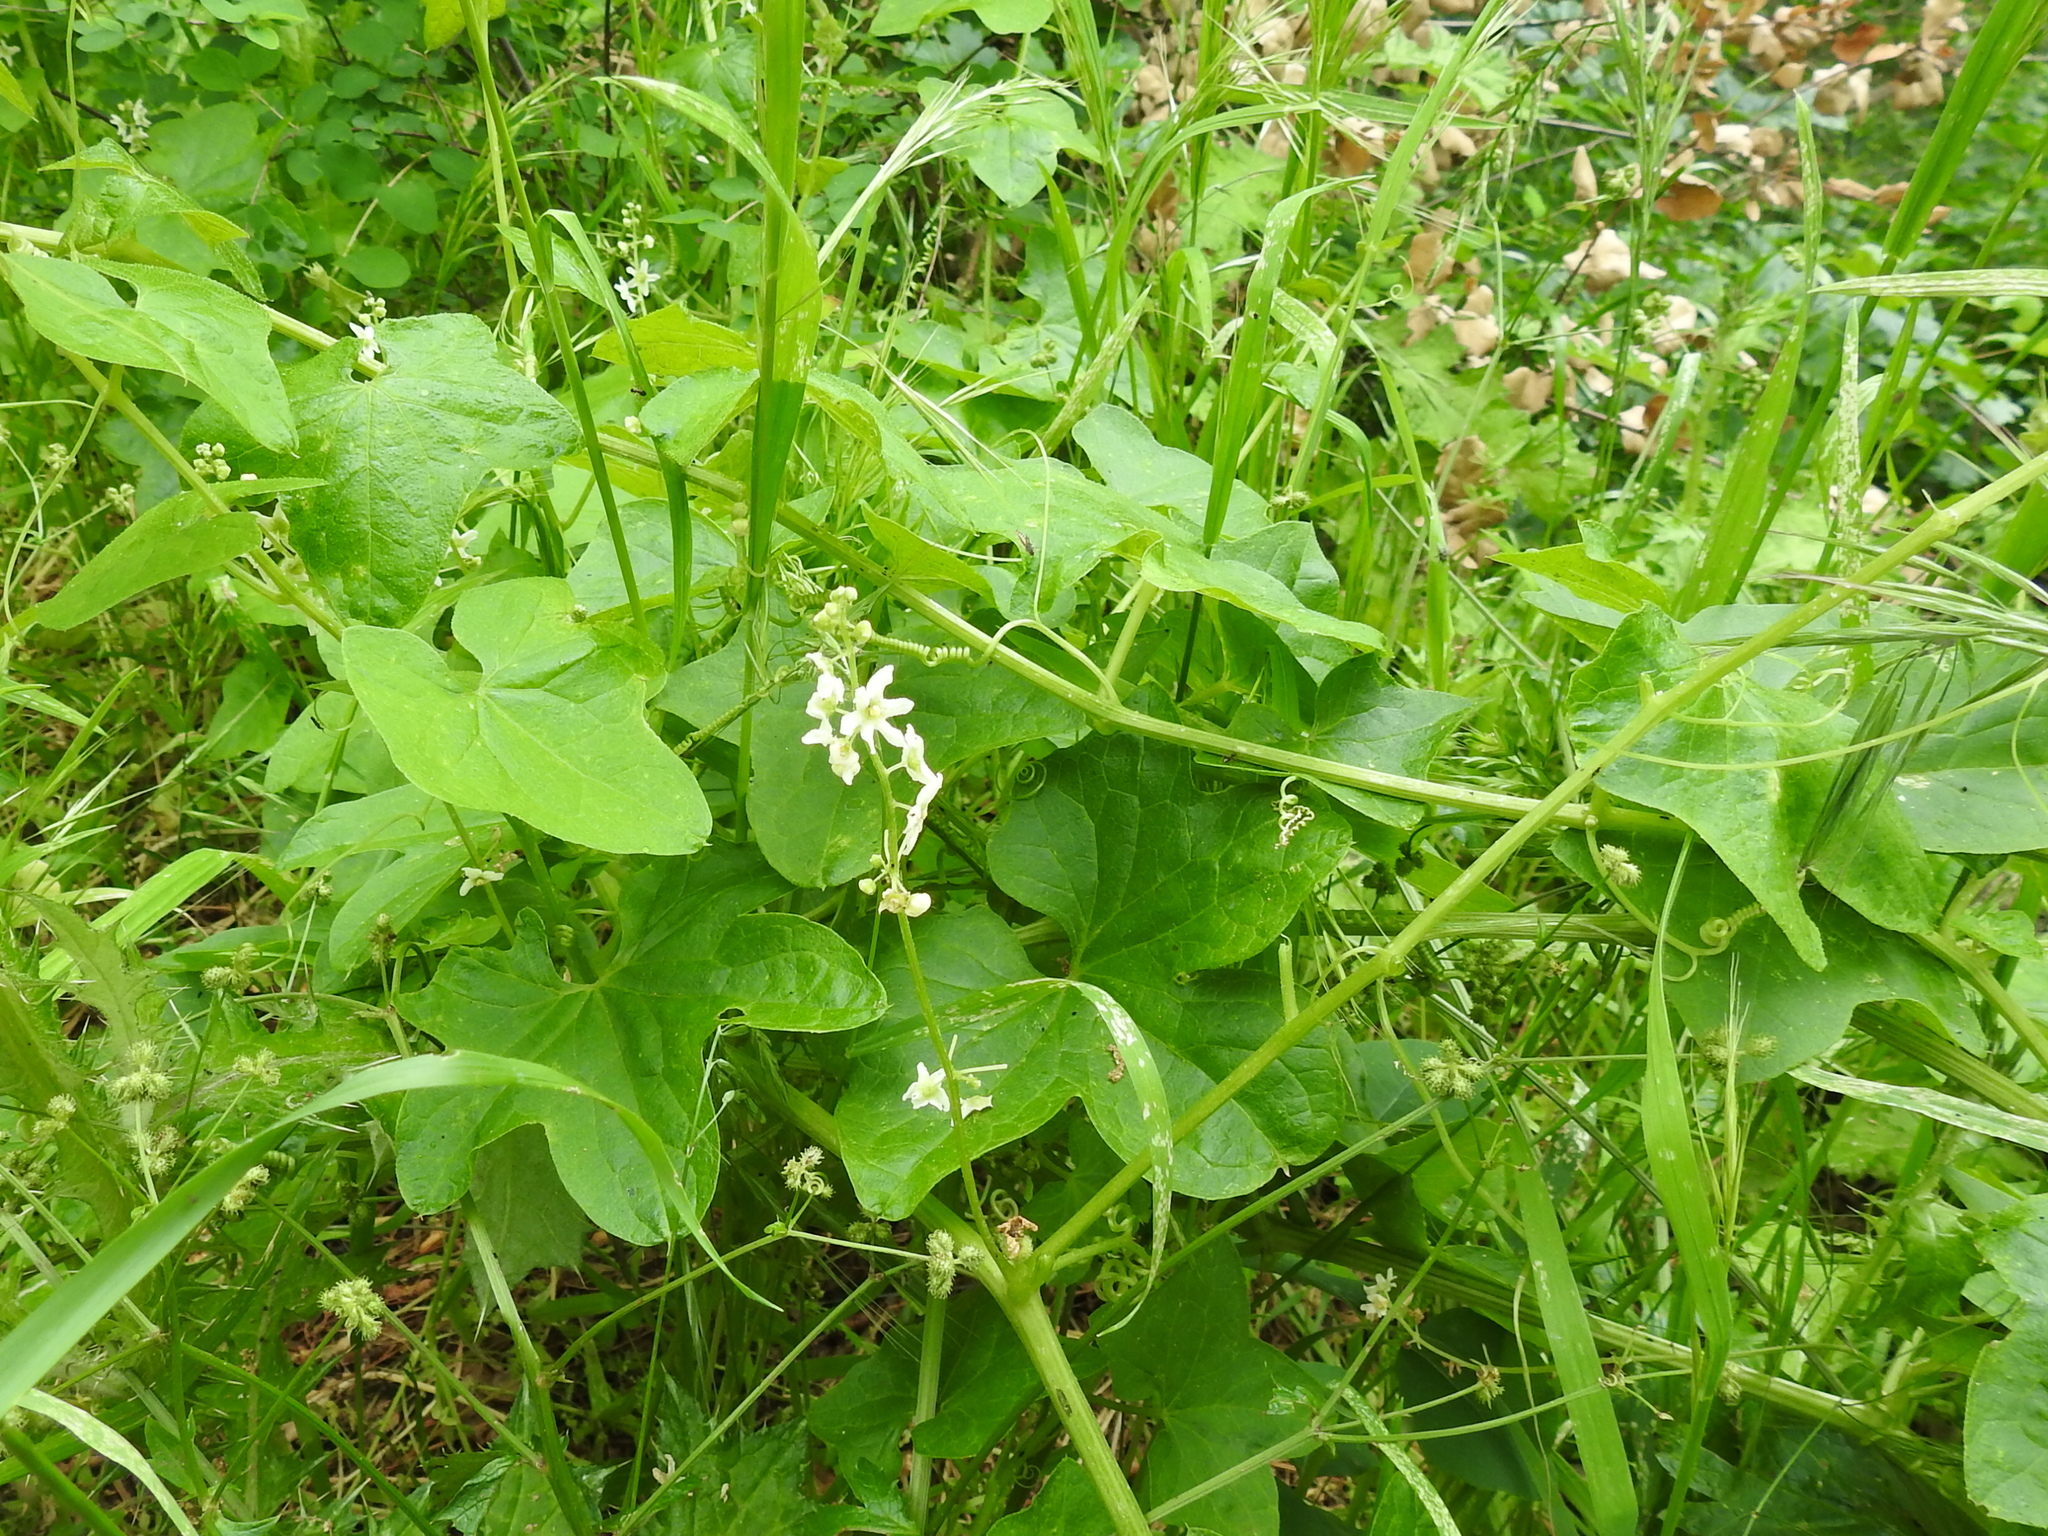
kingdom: Plantae
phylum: Tracheophyta
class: Magnoliopsida
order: Cucurbitales
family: Cucurbitaceae
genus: Marah
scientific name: Marah fabacea
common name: California manroot
